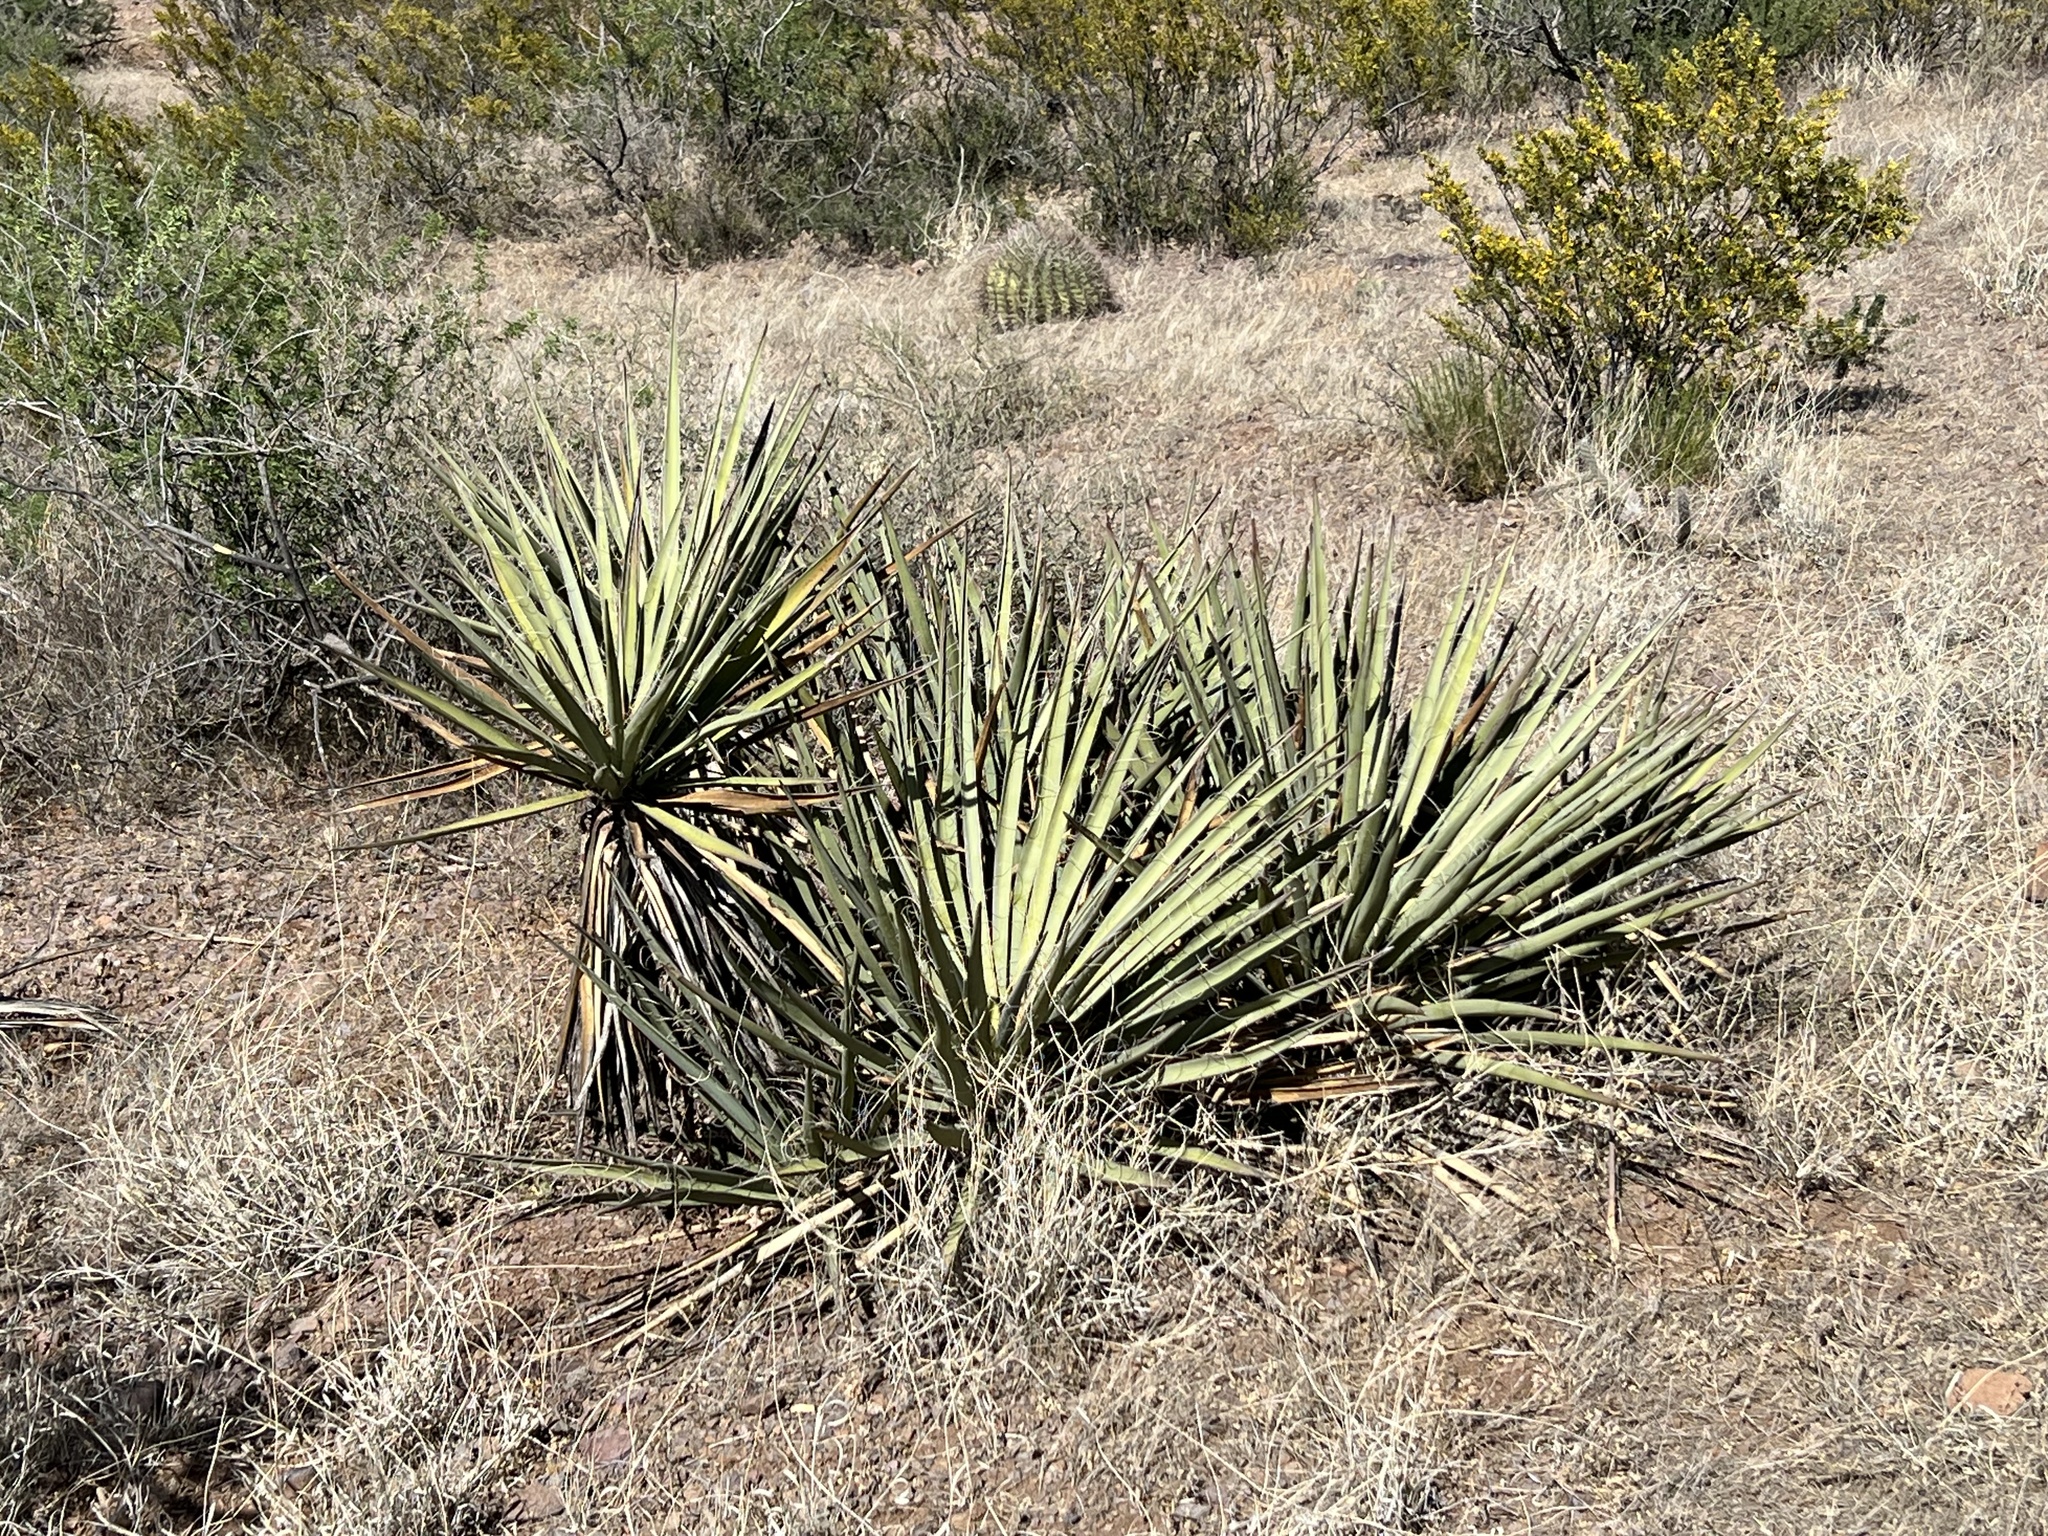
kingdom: Plantae
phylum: Tracheophyta
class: Liliopsida
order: Asparagales
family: Asparagaceae
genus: Yucca
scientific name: Yucca baccata
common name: Banana yucca
